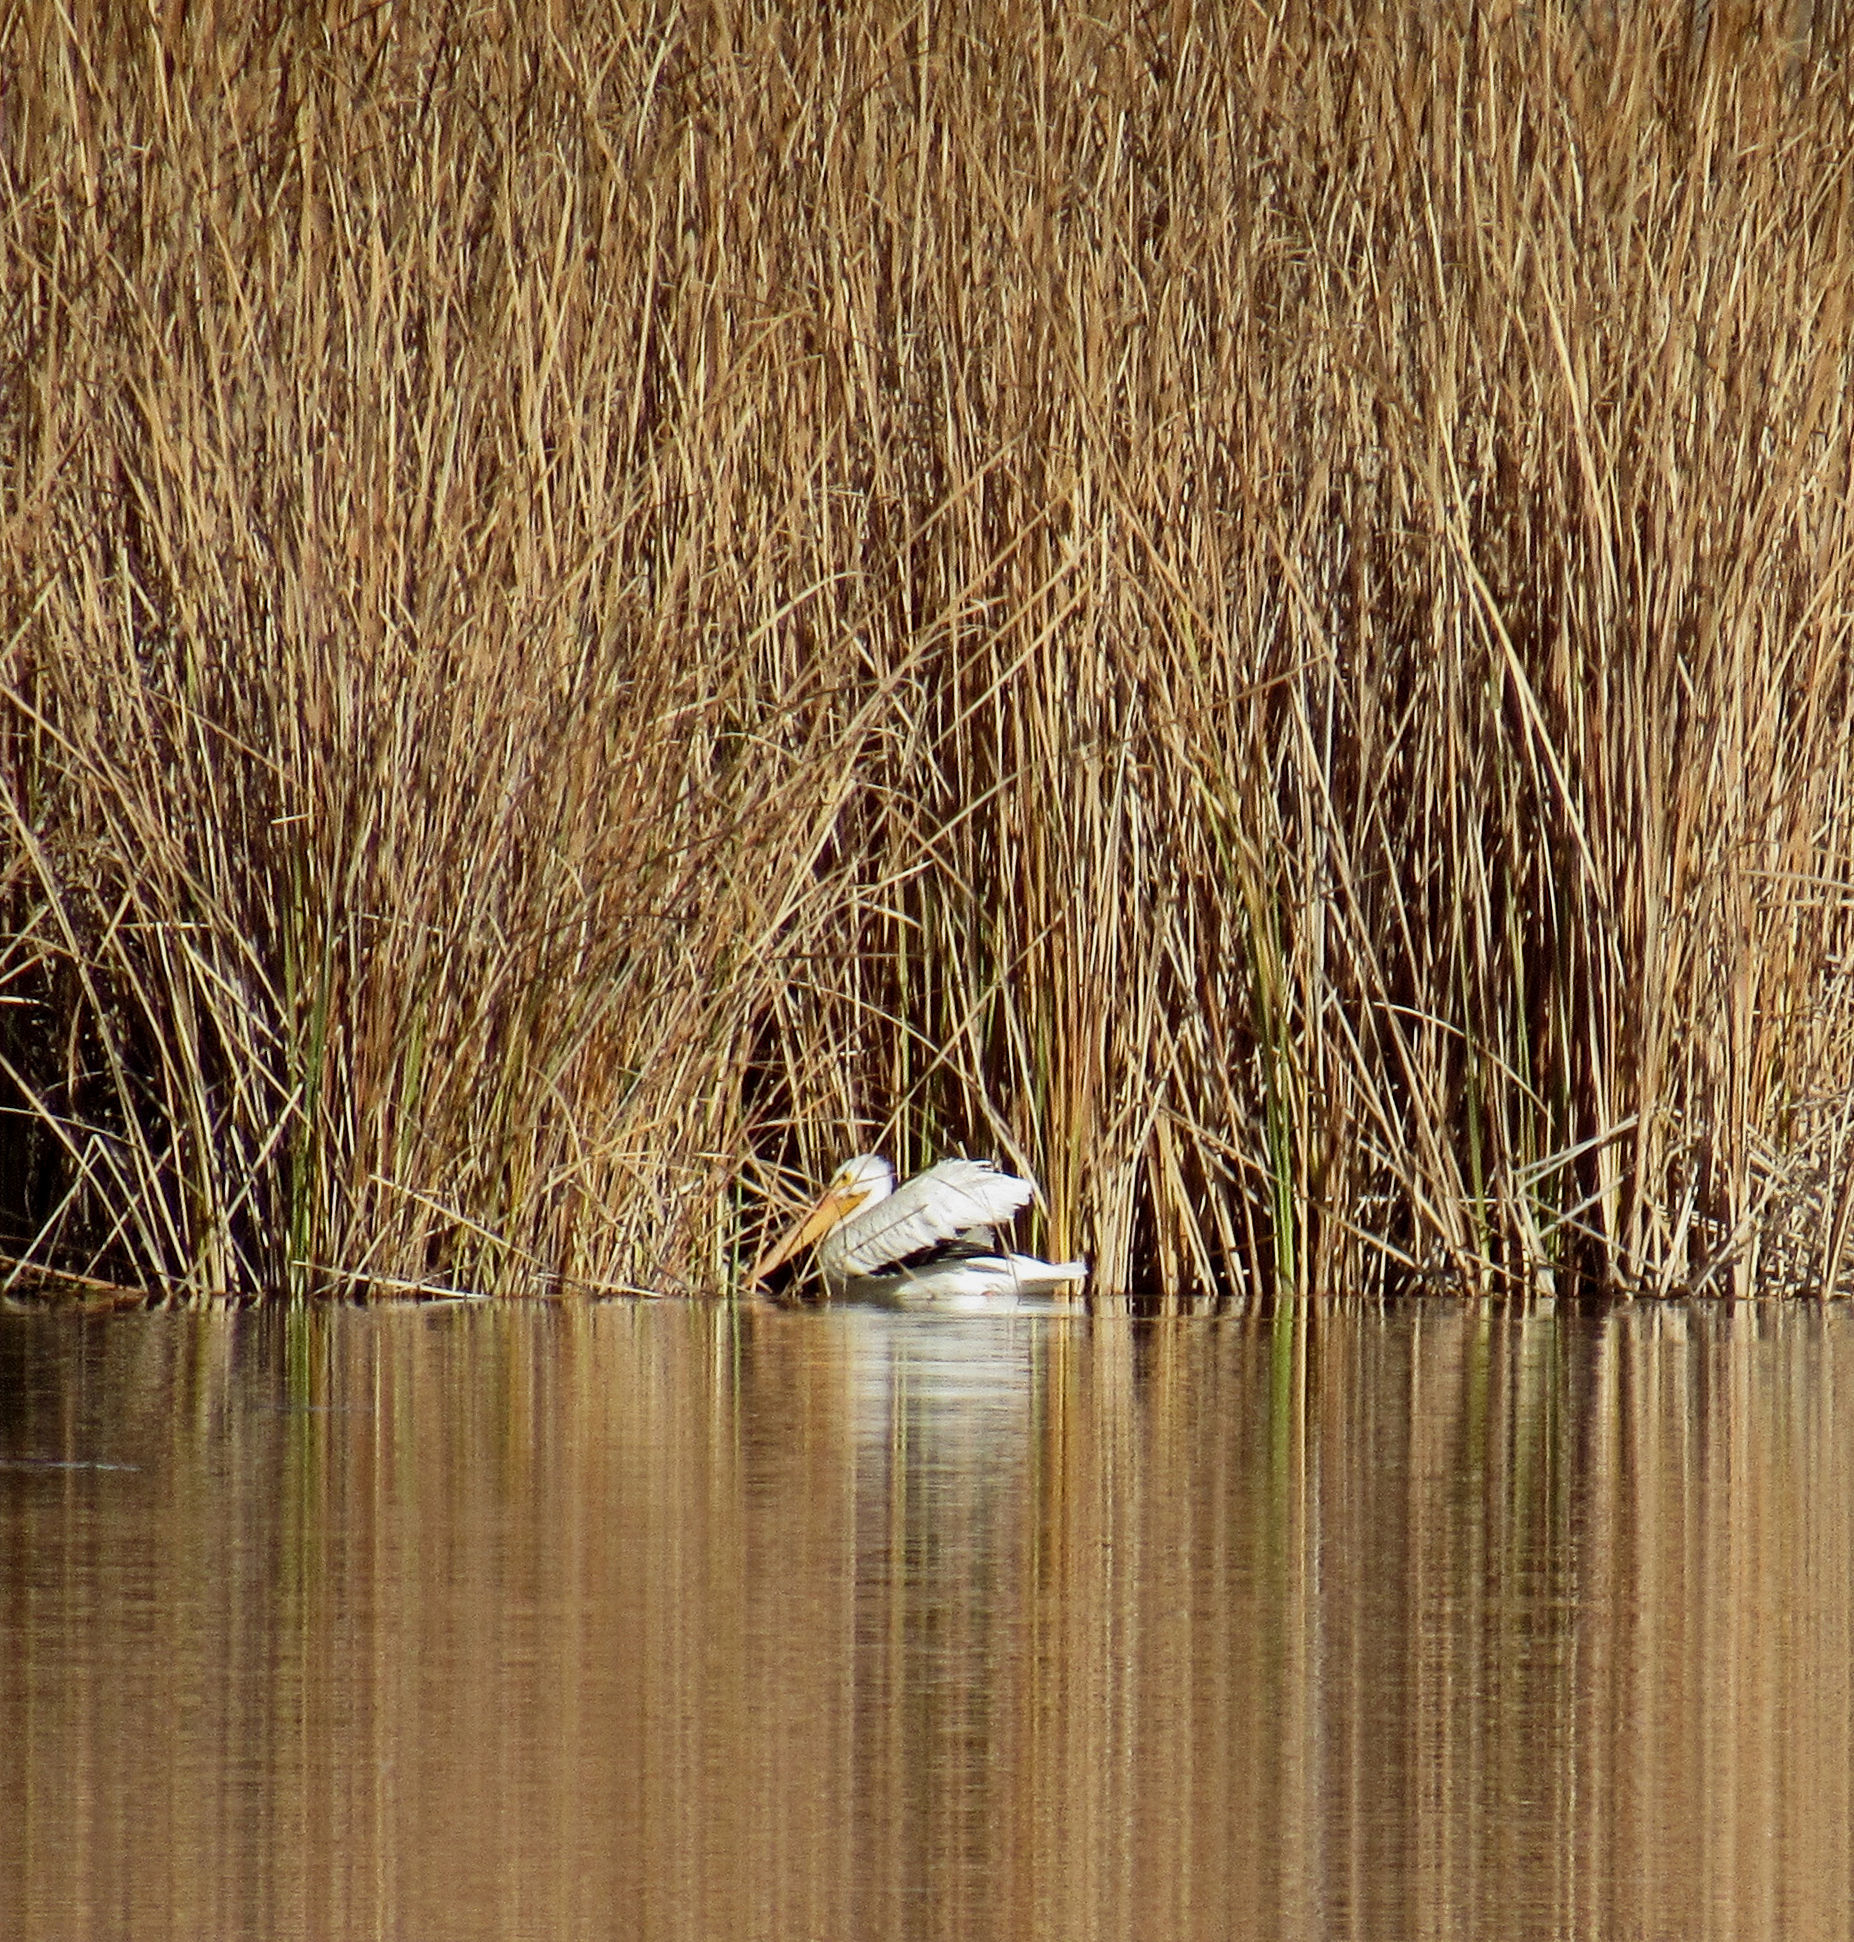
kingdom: Animalia
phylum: Chordata
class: Aves
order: Pelecaniformes
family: Pelecanidae
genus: Pelecanus
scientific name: Pelecanus erythrorhynchos
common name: American white pelican
